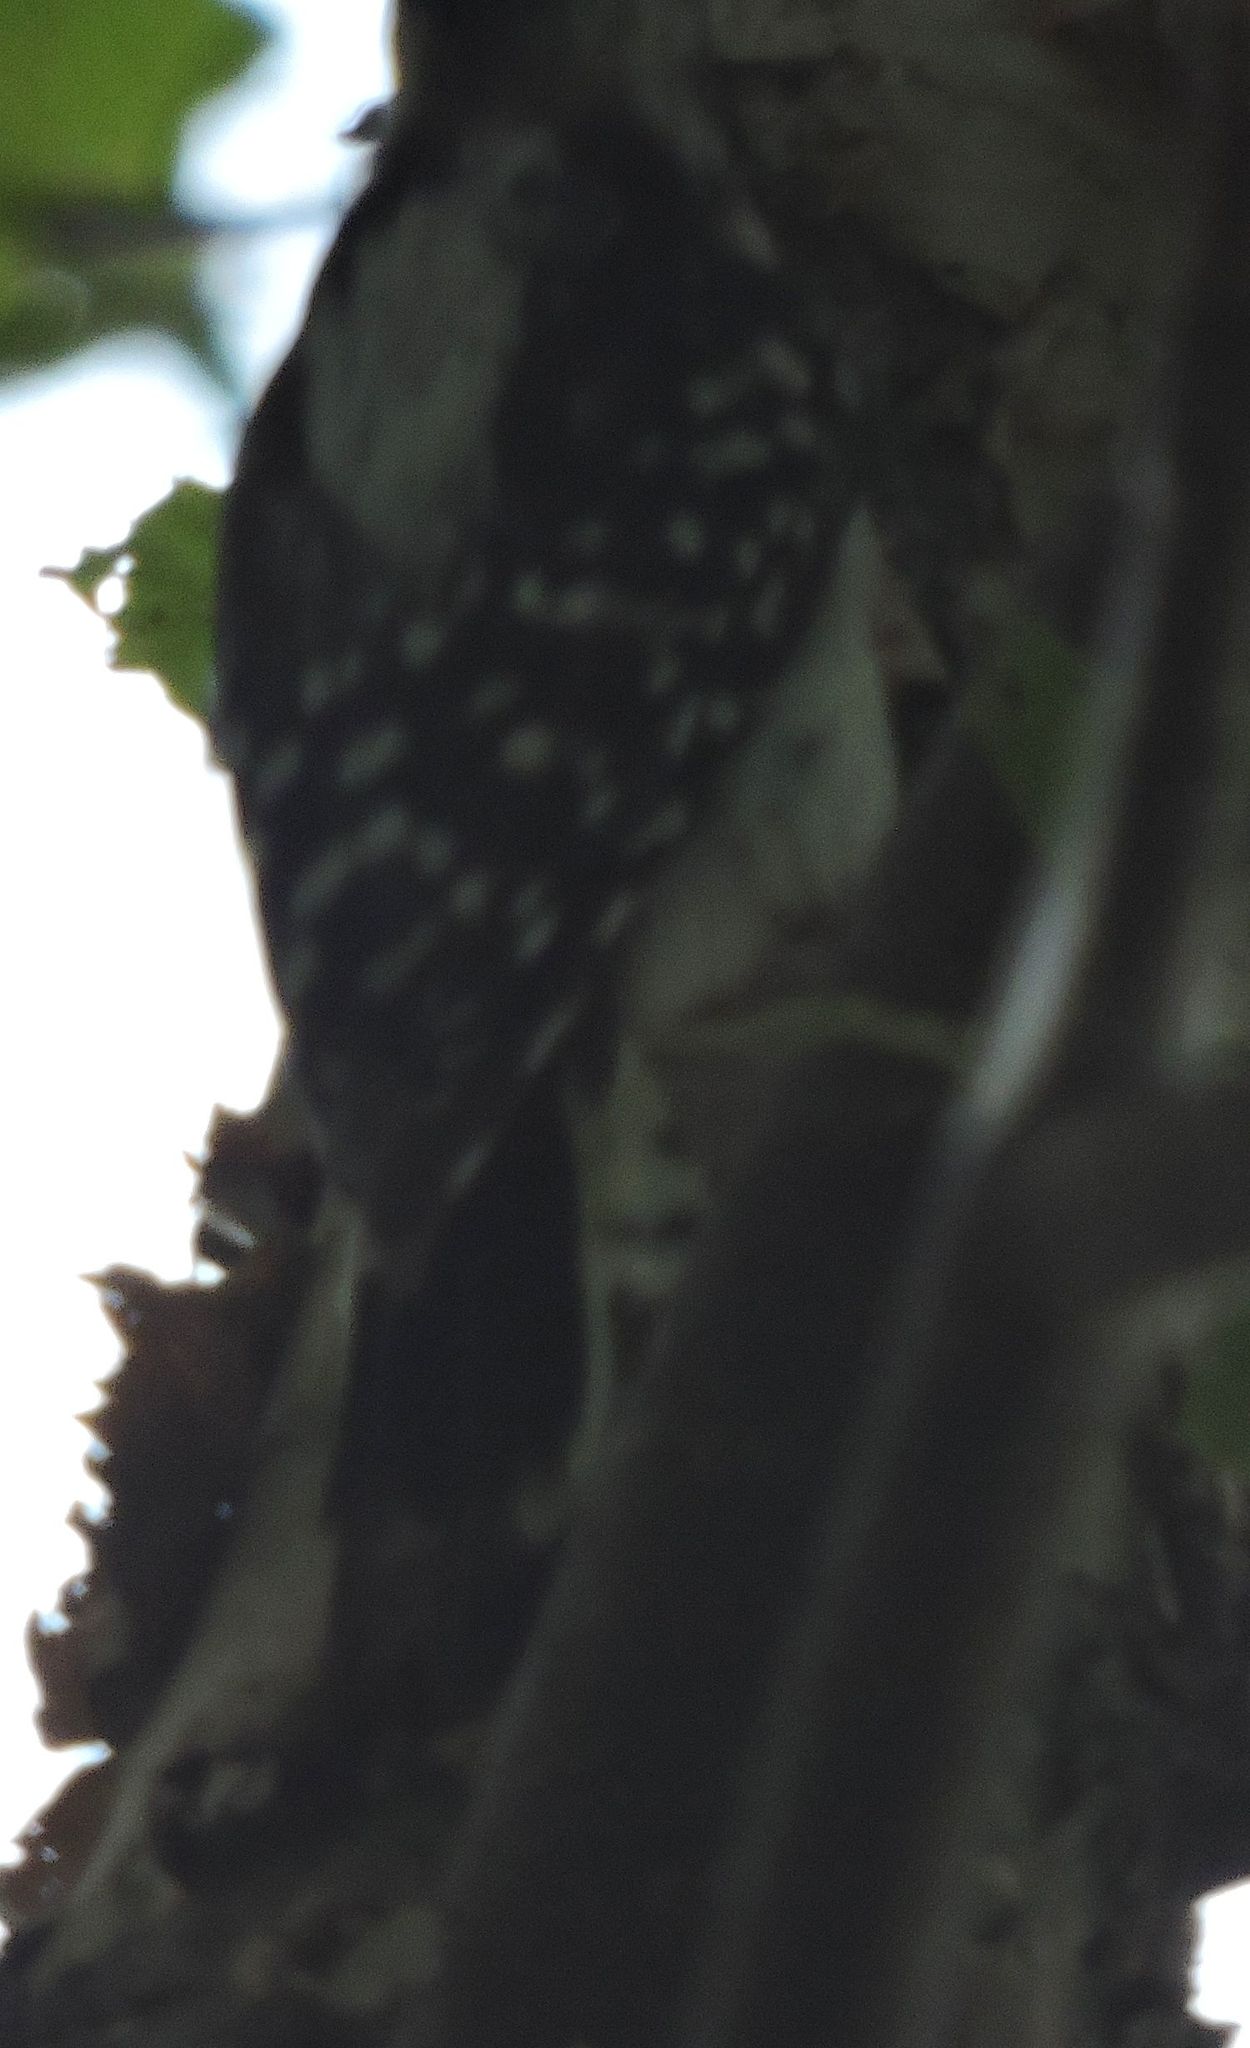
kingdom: Animalia
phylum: Chordata
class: Aves
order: Piciformes
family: Picidae
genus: Dryobates
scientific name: Dryobates pubescens
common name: Downy woodpecker
